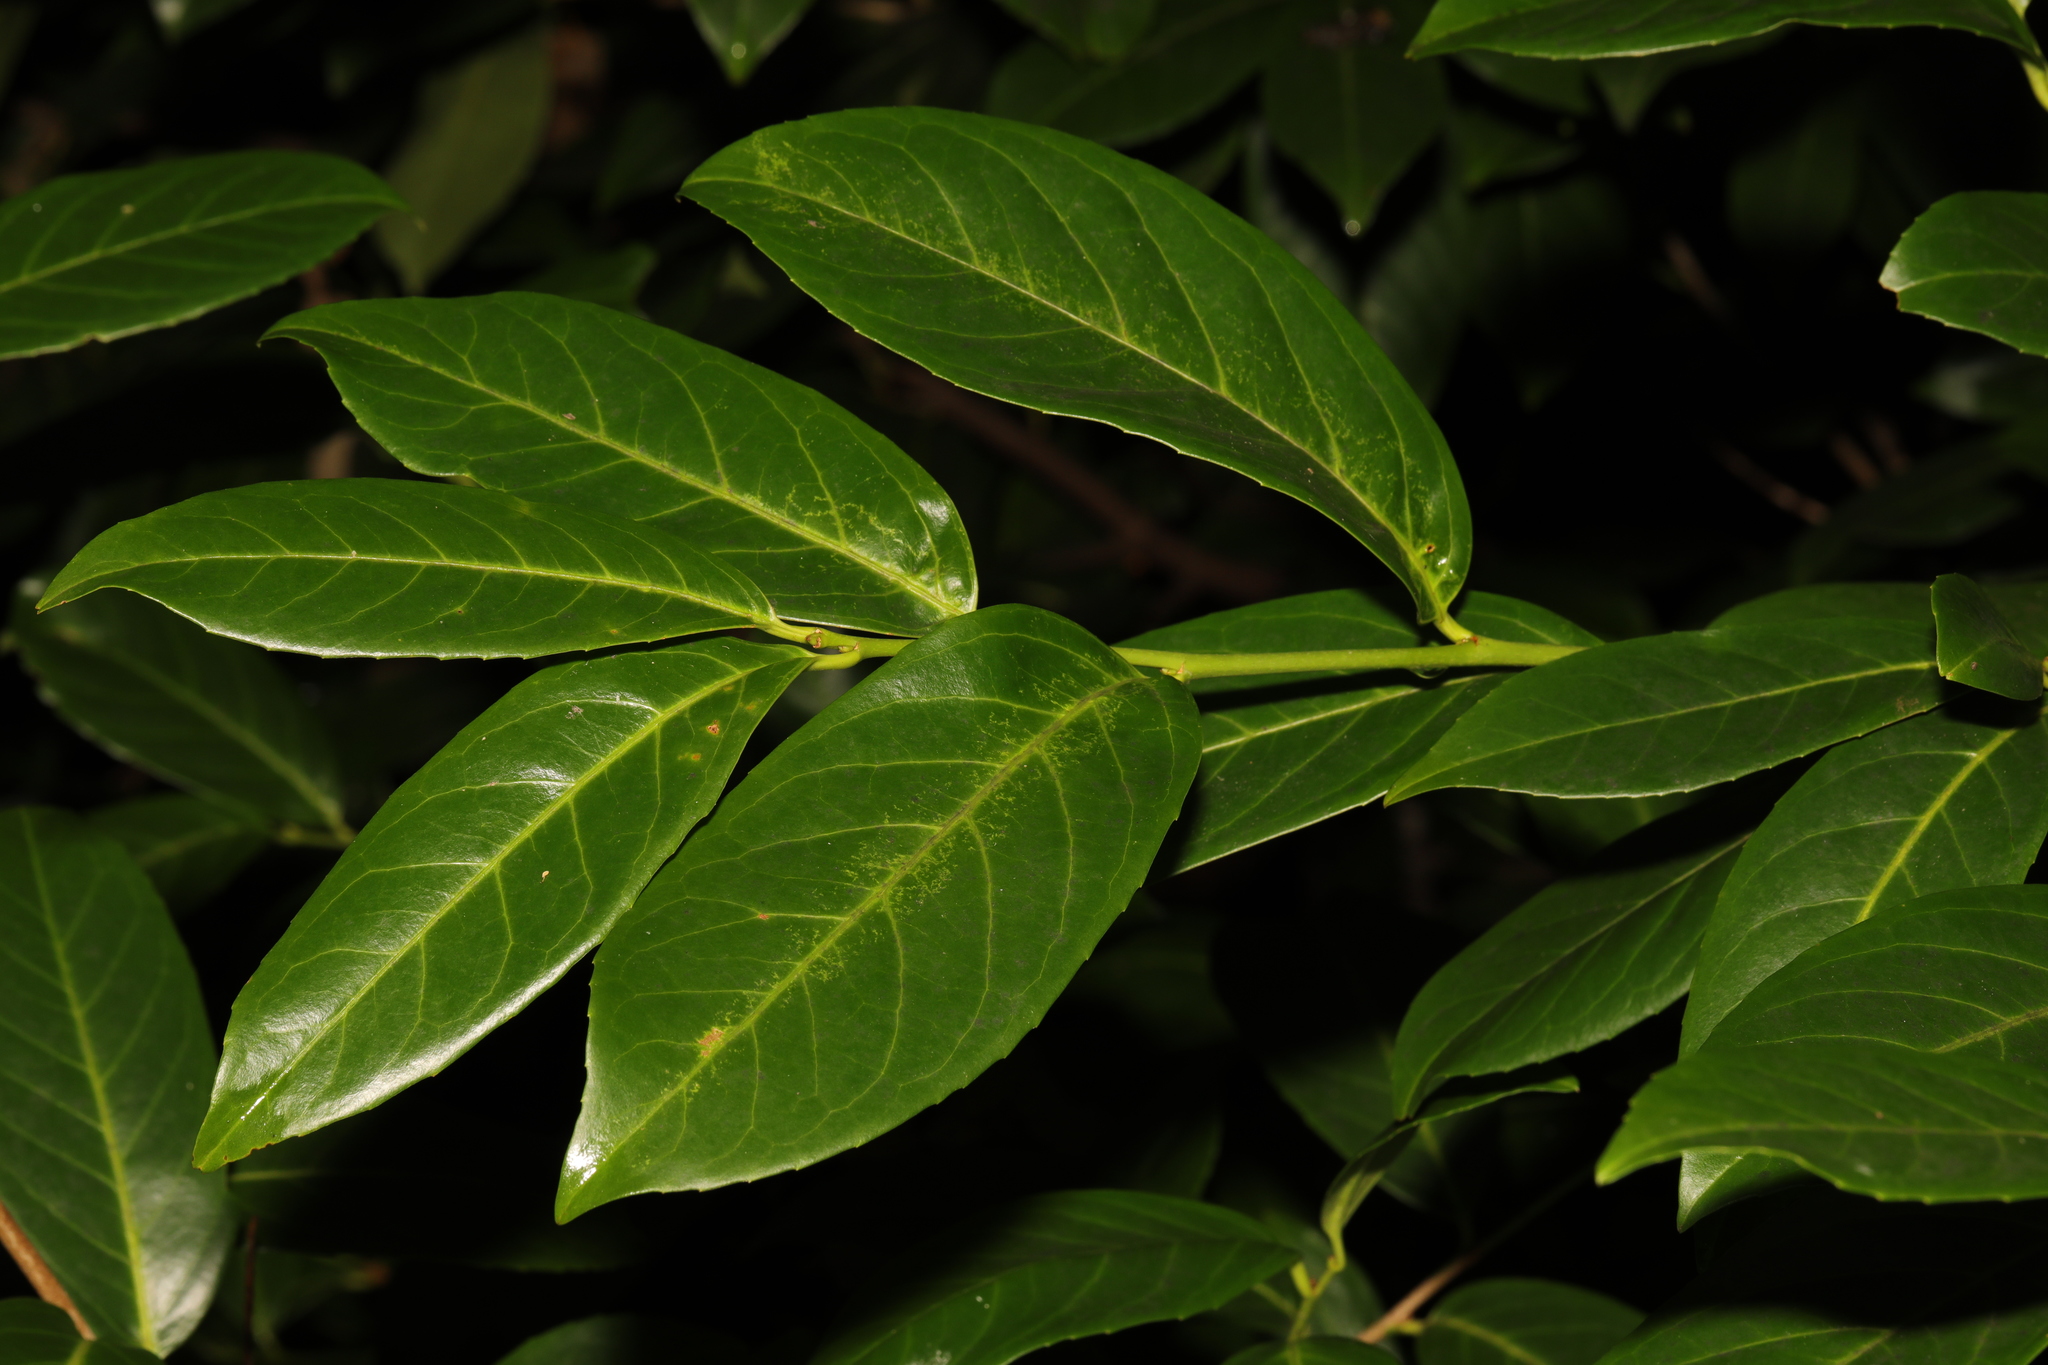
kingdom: Plantae
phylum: Tracheophyta
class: Magnoliopsida
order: Rosales
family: Rosaceae
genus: Prunus
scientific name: Prunus laurocerasus
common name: Cherry laurel
